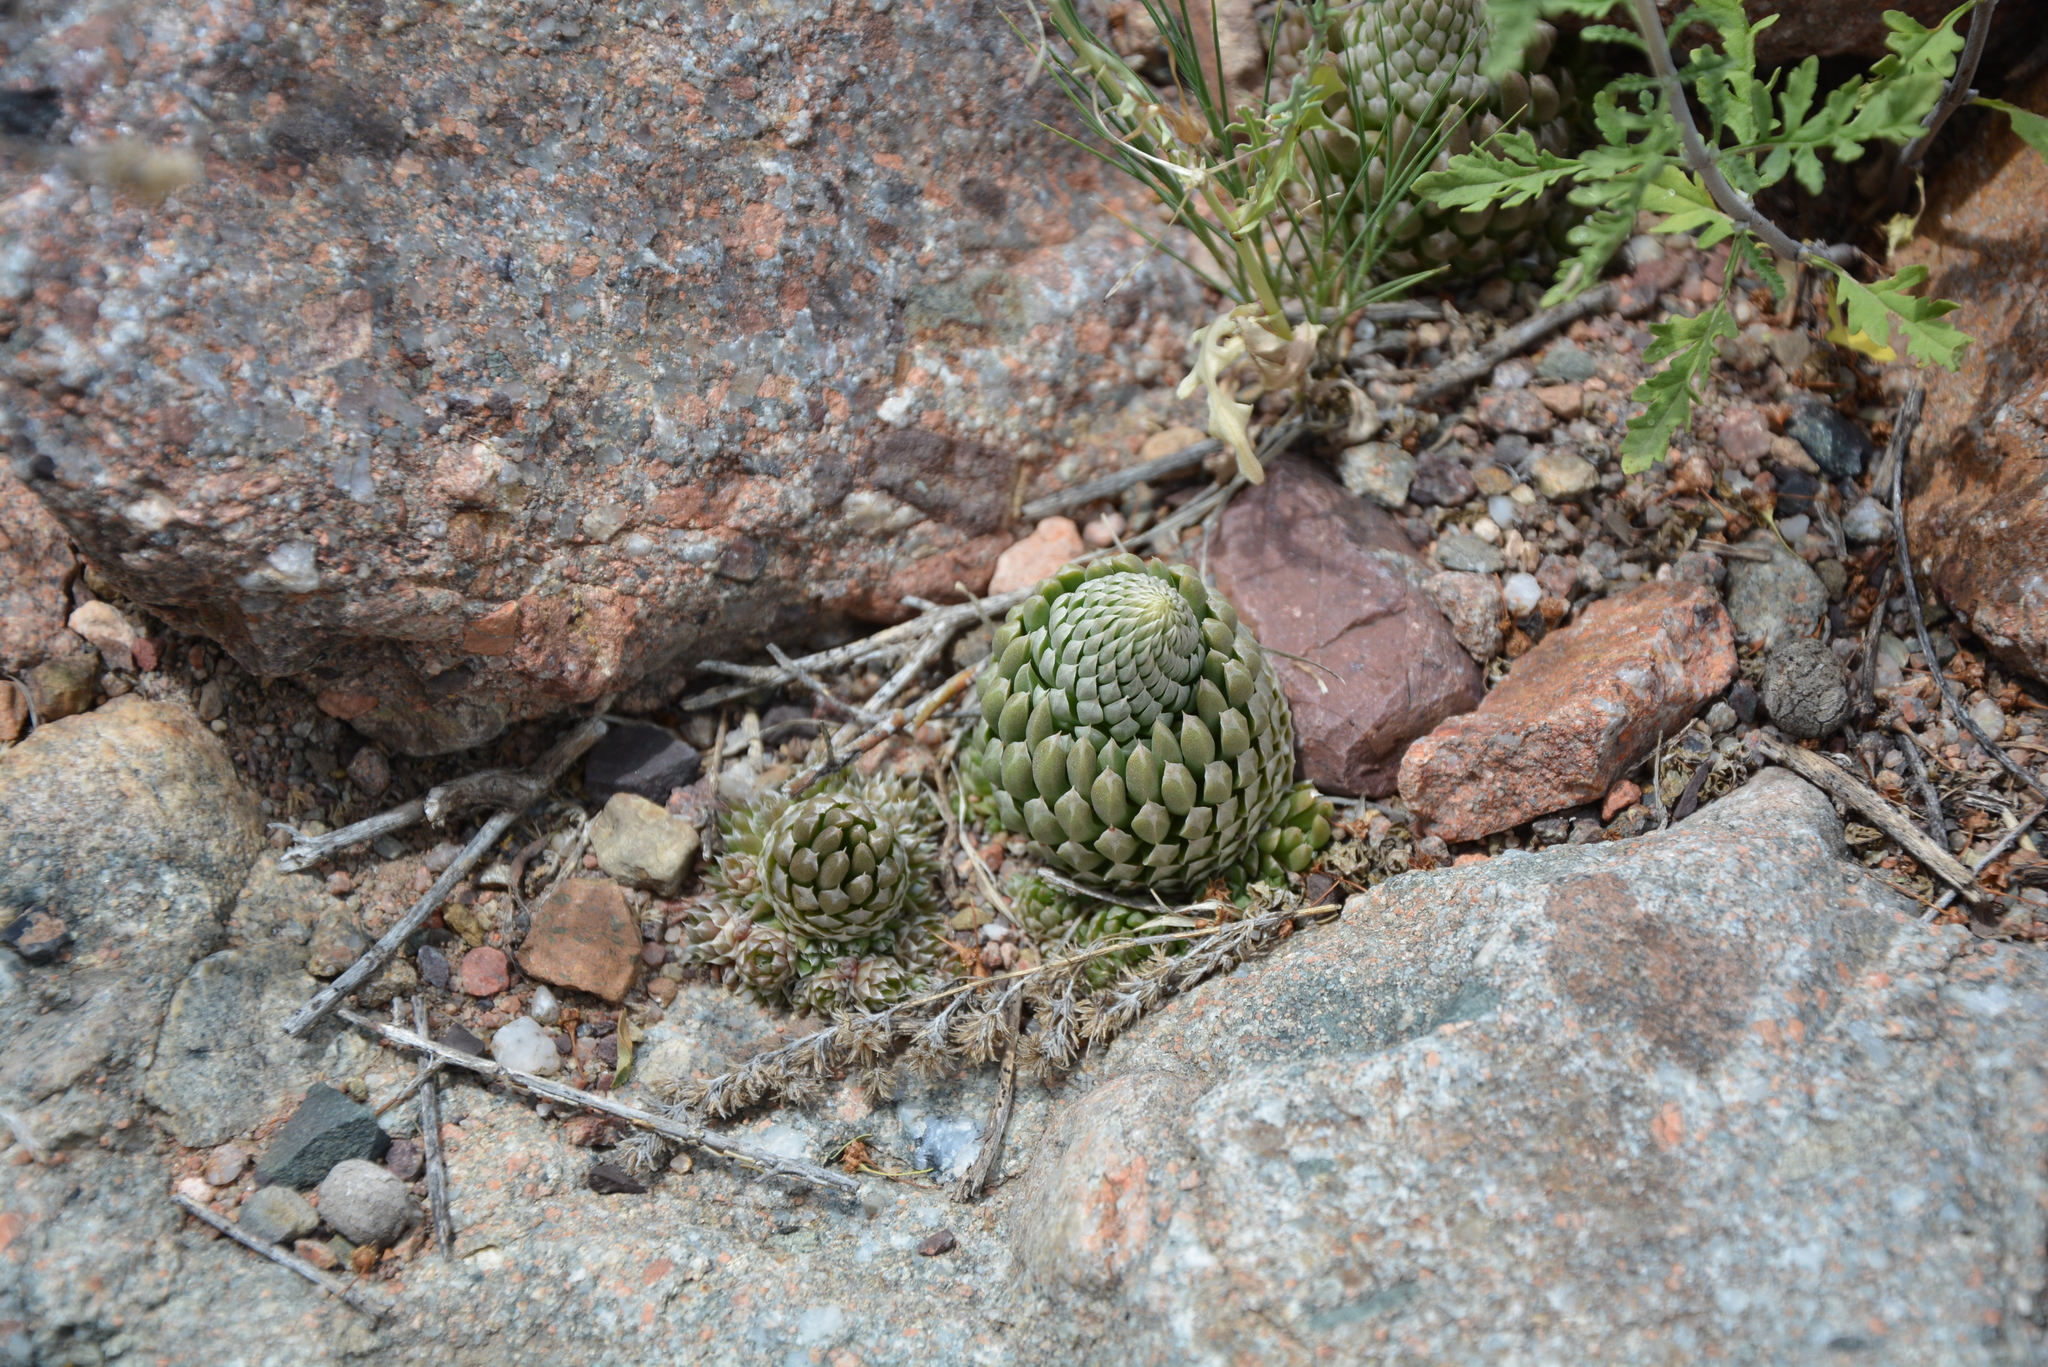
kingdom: Plantae
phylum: Tracheophyta
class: Magnoliopsida
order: Saxifragales
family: Crassulaceae
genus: Orostachys
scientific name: Orostachys thyrsiflora
